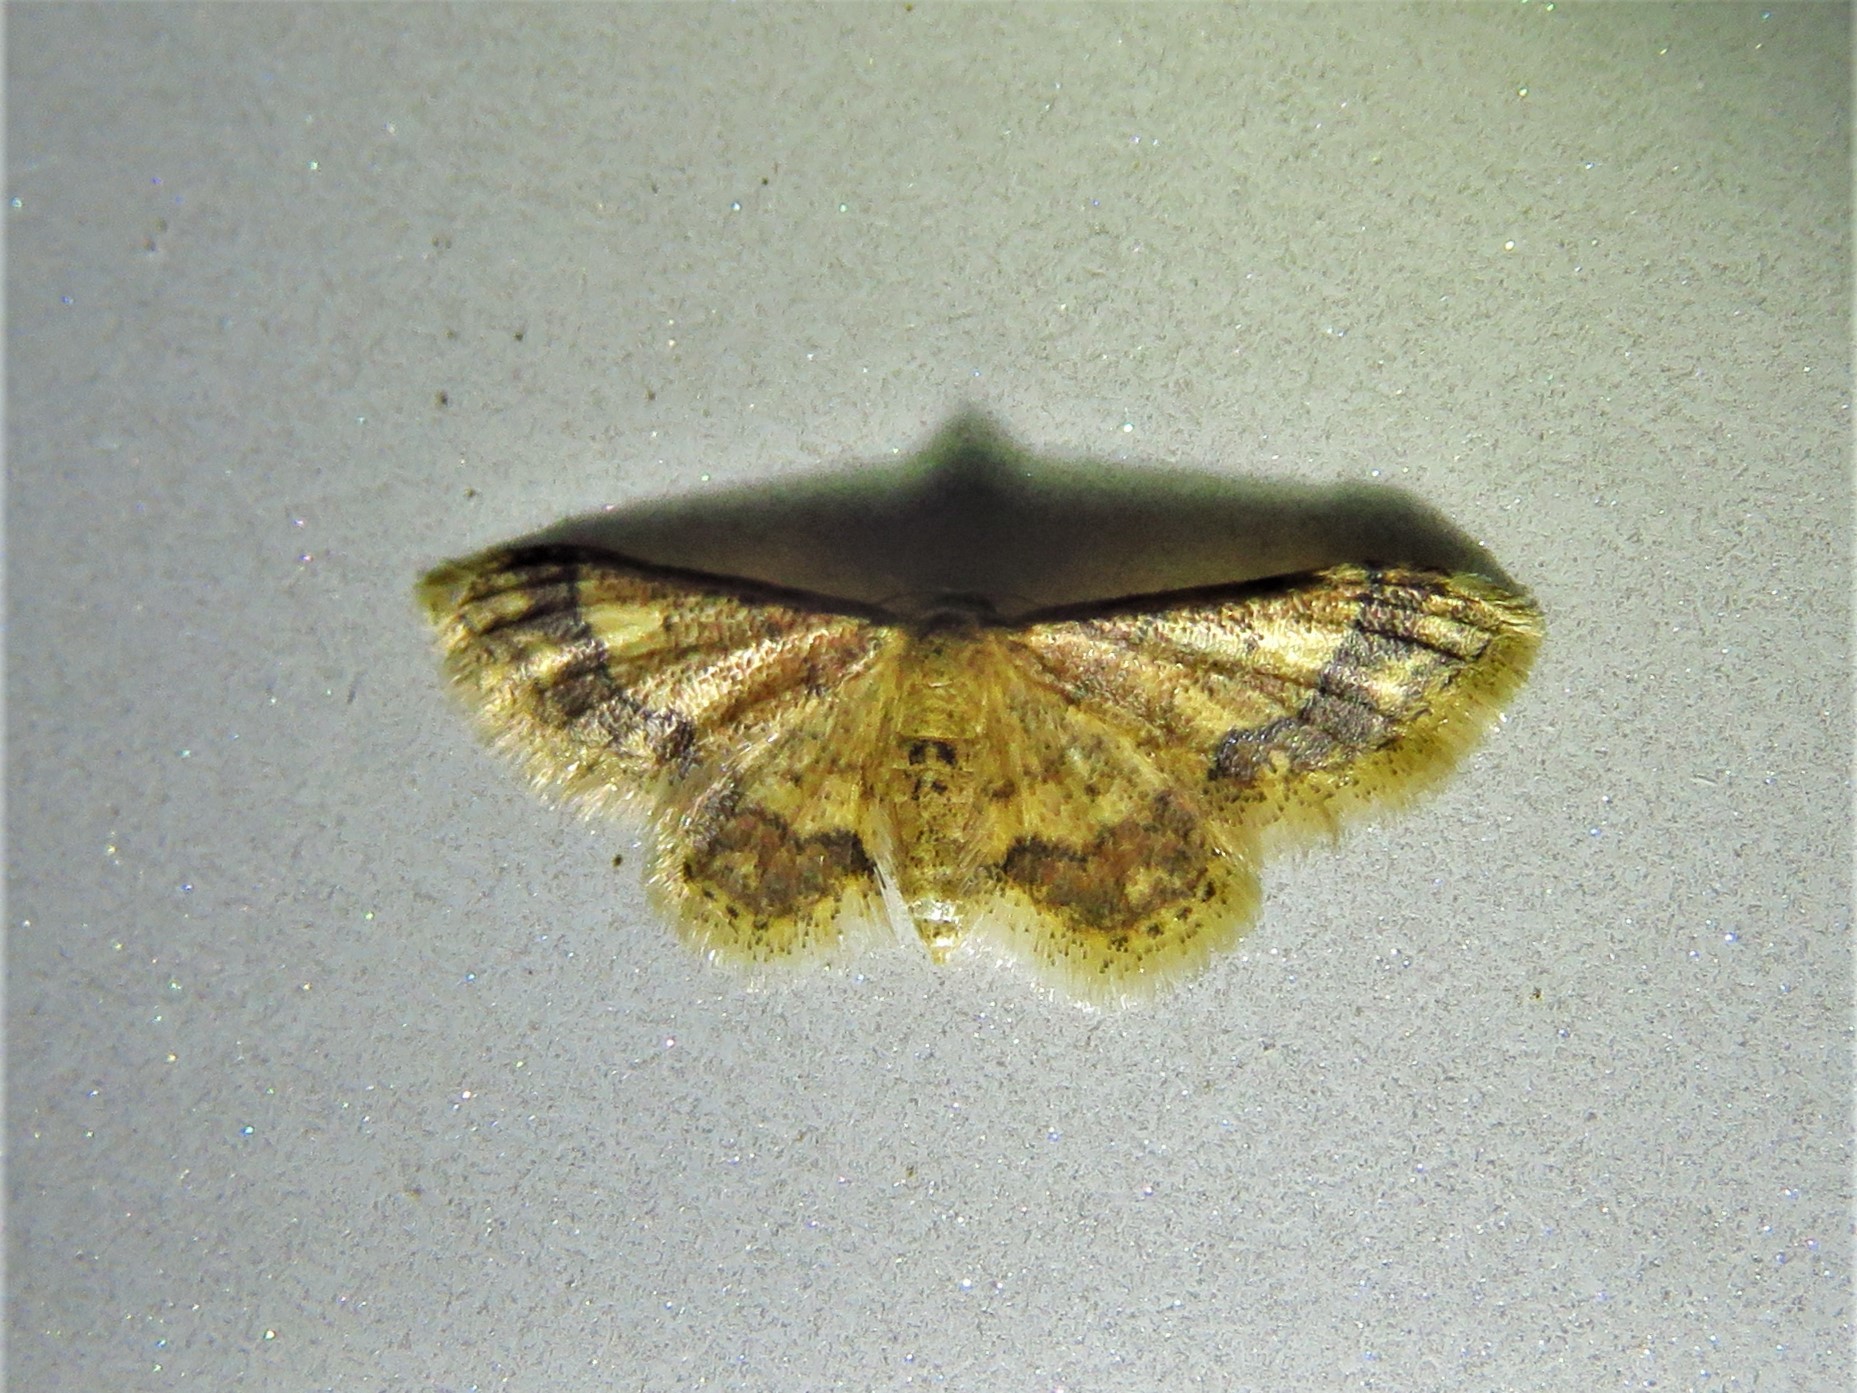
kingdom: Animalia
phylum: Arthropoda
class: Insecta
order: Lepidoptera
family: Geometridae
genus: Idaea
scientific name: Idaea celtima
